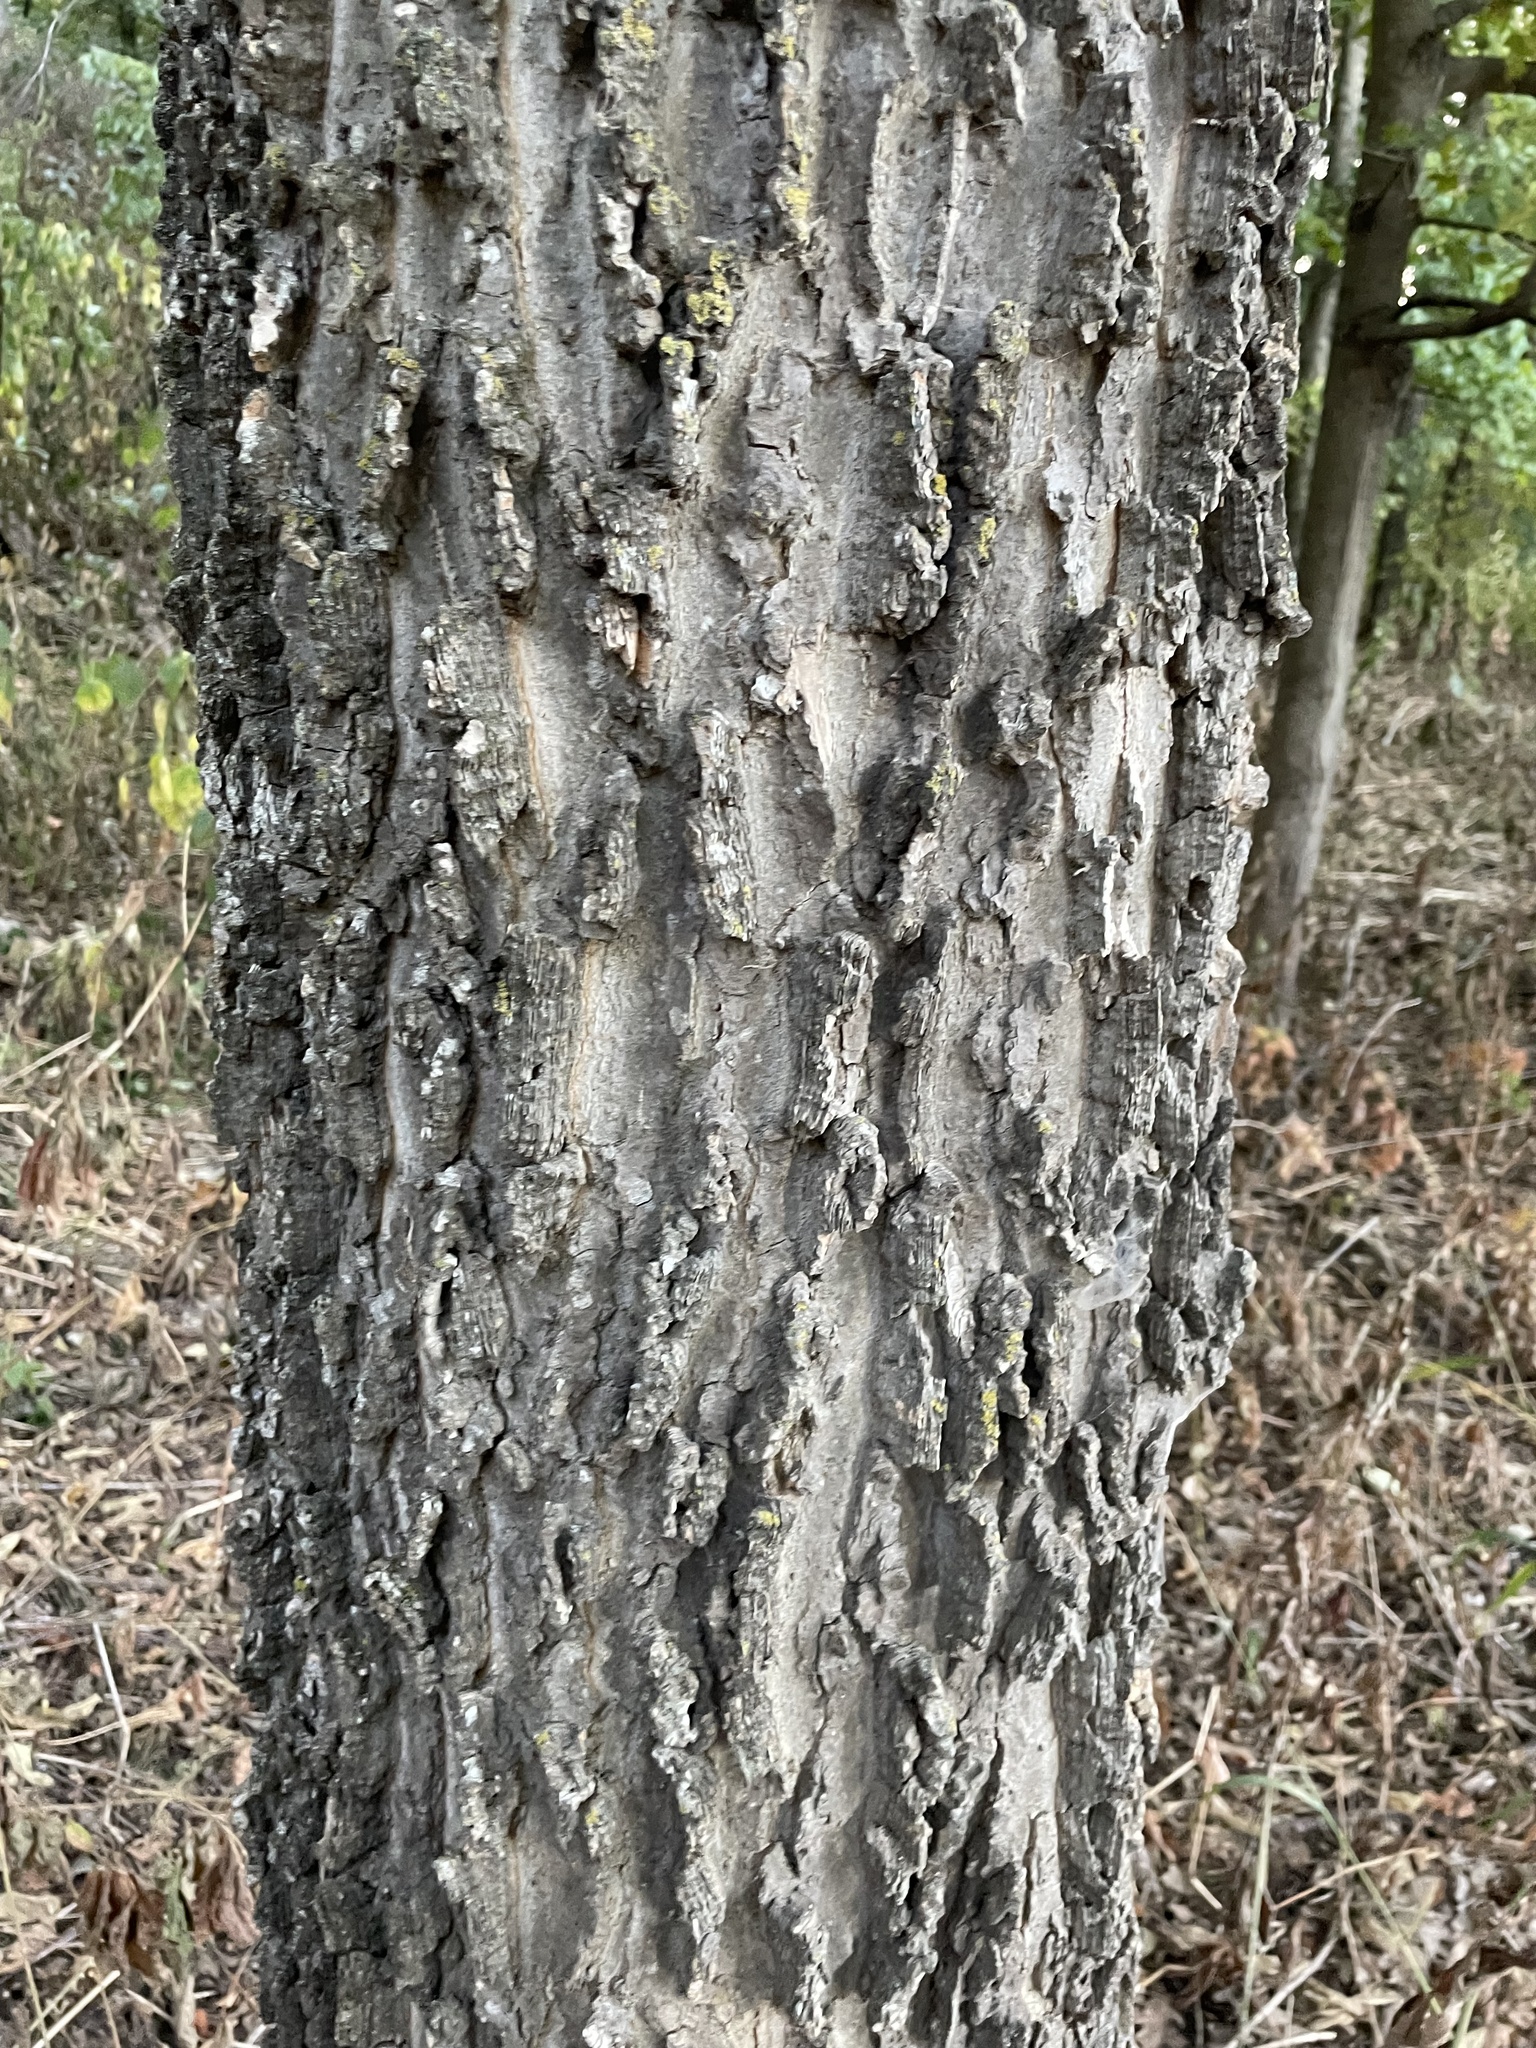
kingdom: Plantae
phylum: Tracheophyta
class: Magnoliopsida
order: Rosales
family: Cannabaceae
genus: Celtis
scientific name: Celtis occidentalis
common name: Common hackberry
